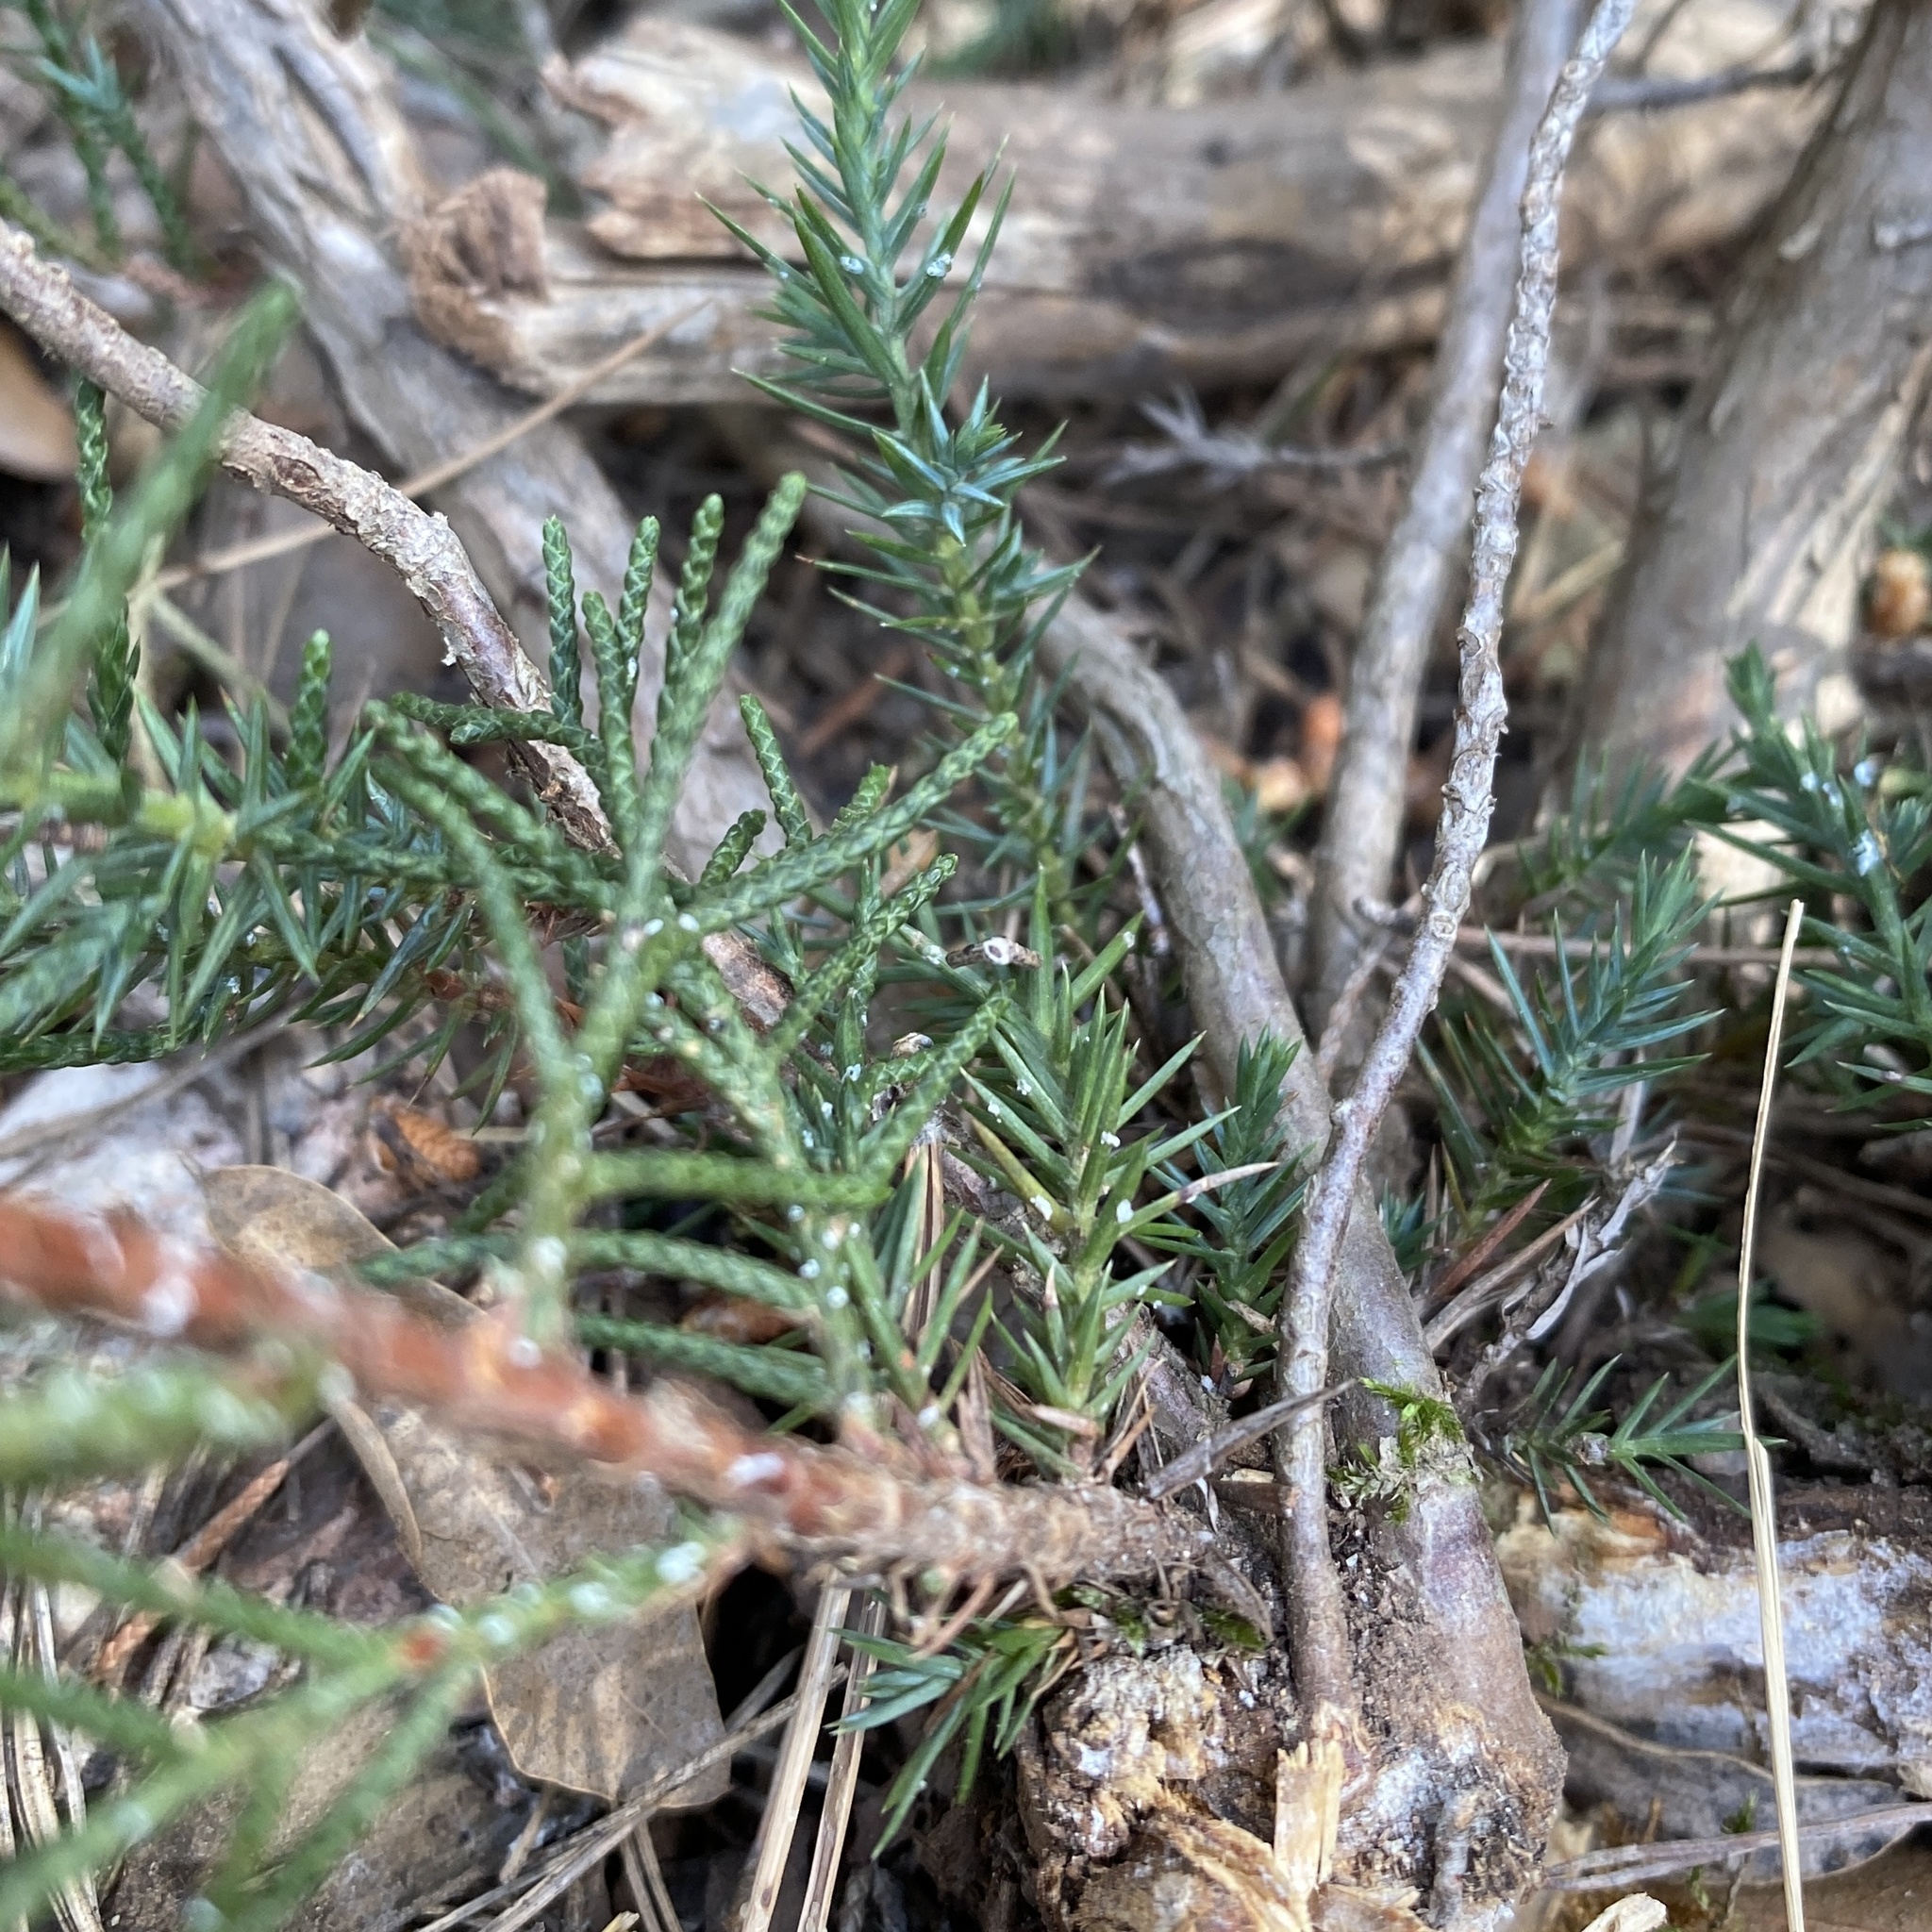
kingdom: Plantae
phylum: Tracheophyta
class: Pinopsida
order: Pinales
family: Cupressaceae
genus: Juniperus
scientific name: Juniperus phoenicea
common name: Phoenician juniper
